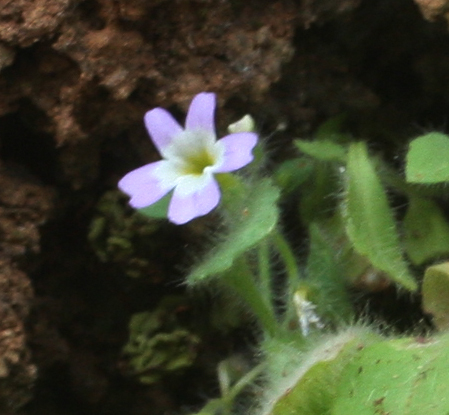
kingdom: Plantae
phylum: Tracheophyta
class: Magnoliopsida
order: Lamiales
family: Plantaginaceae
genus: Erinus
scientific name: Erinus thiabaudii
